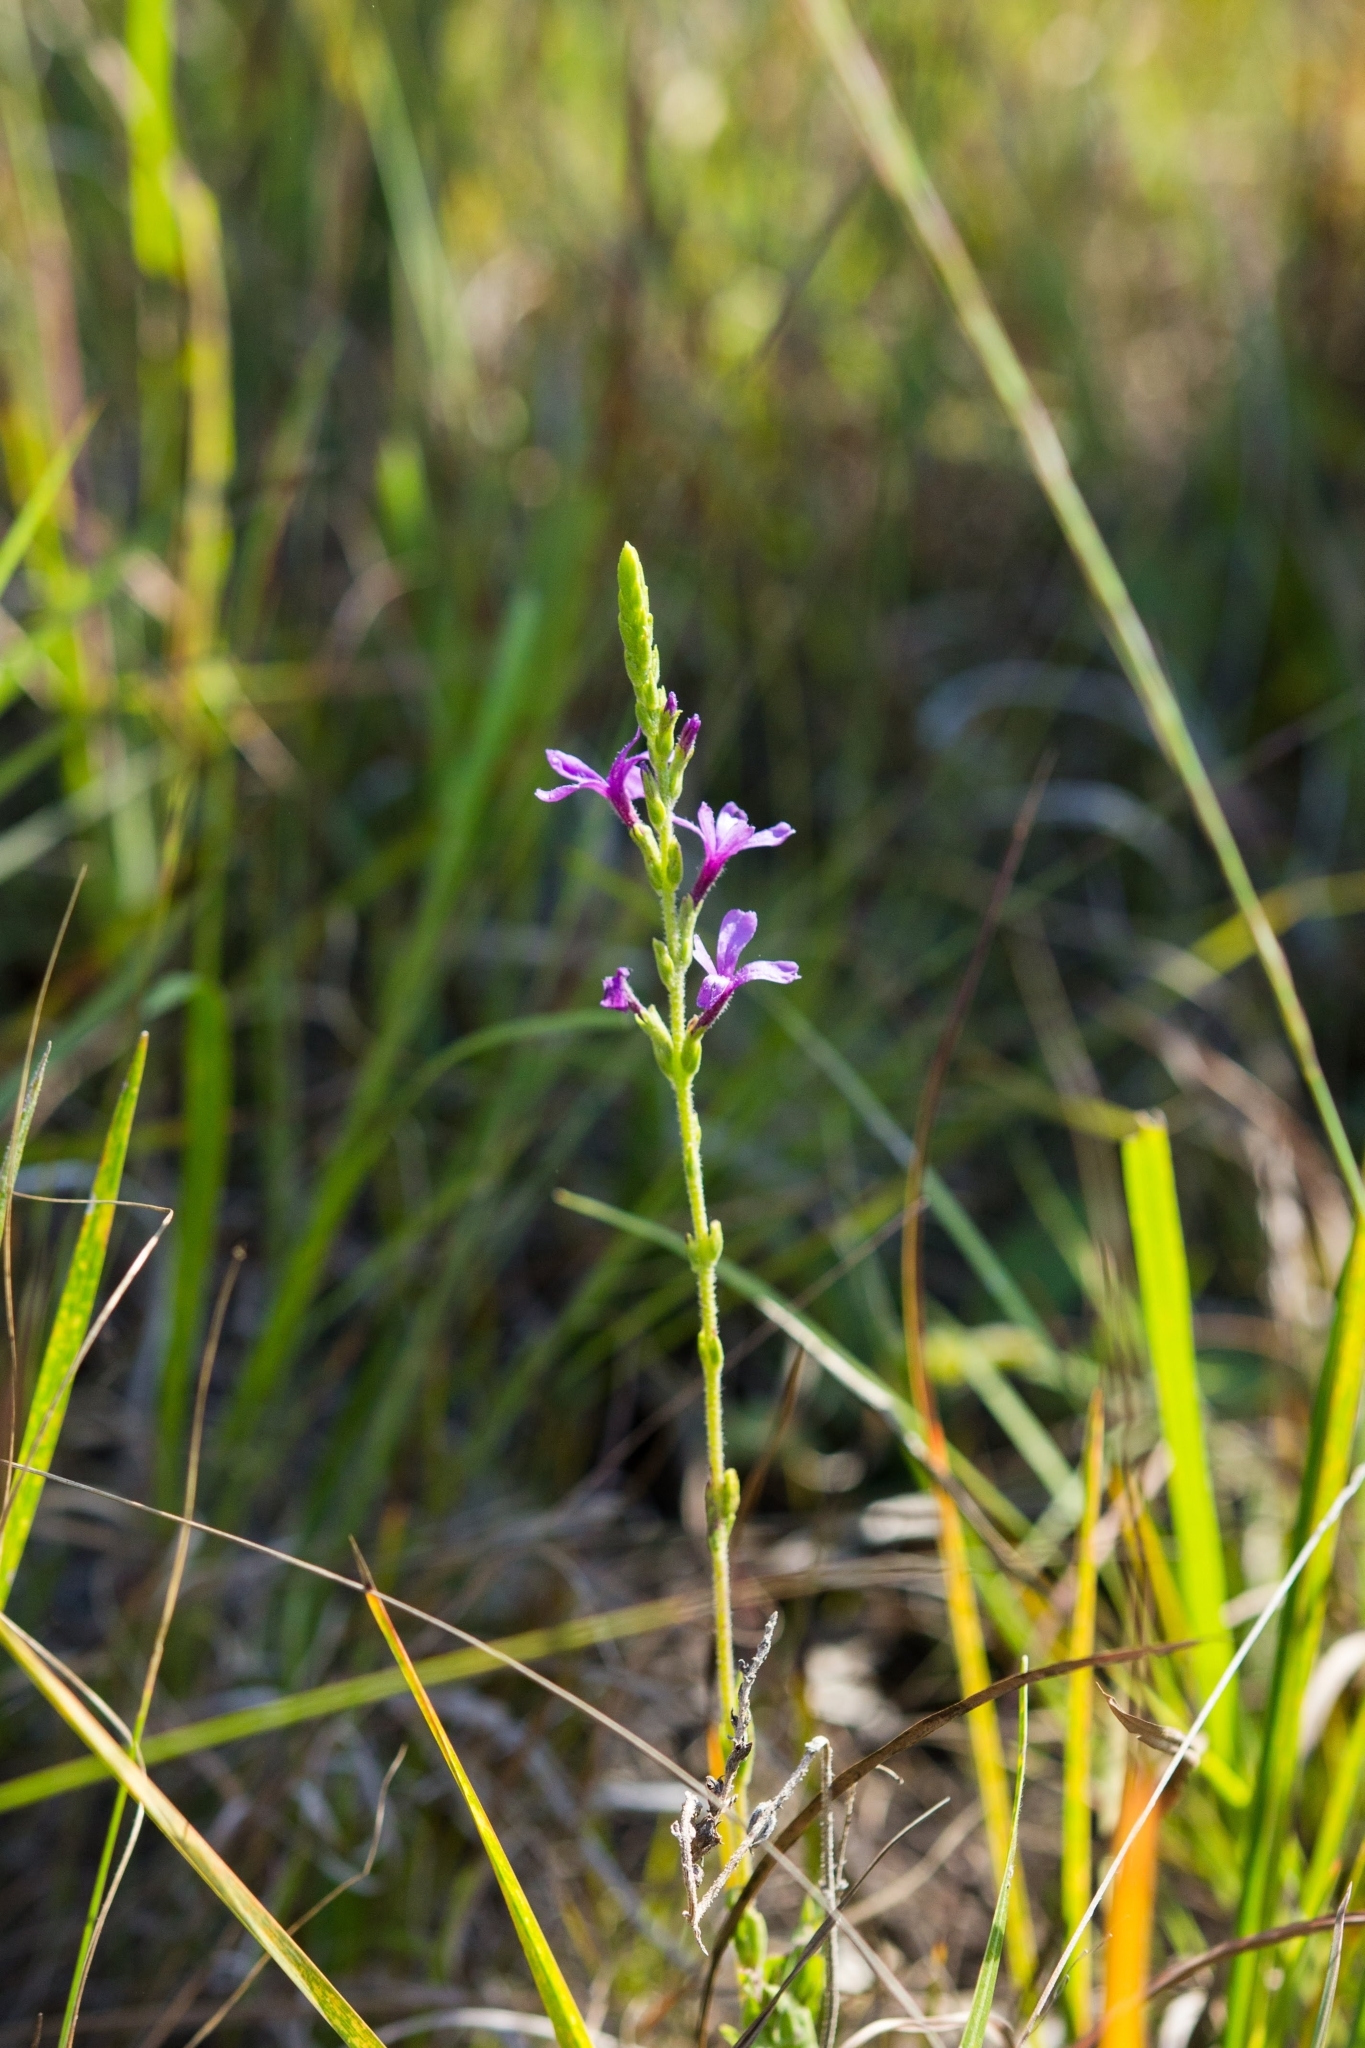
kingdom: Plantae
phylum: Tracheophyta
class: Magnoliopsida
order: Lamiales
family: Orobanchaceae
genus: Buchnera
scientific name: Buchnera americana
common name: American bluehearts
